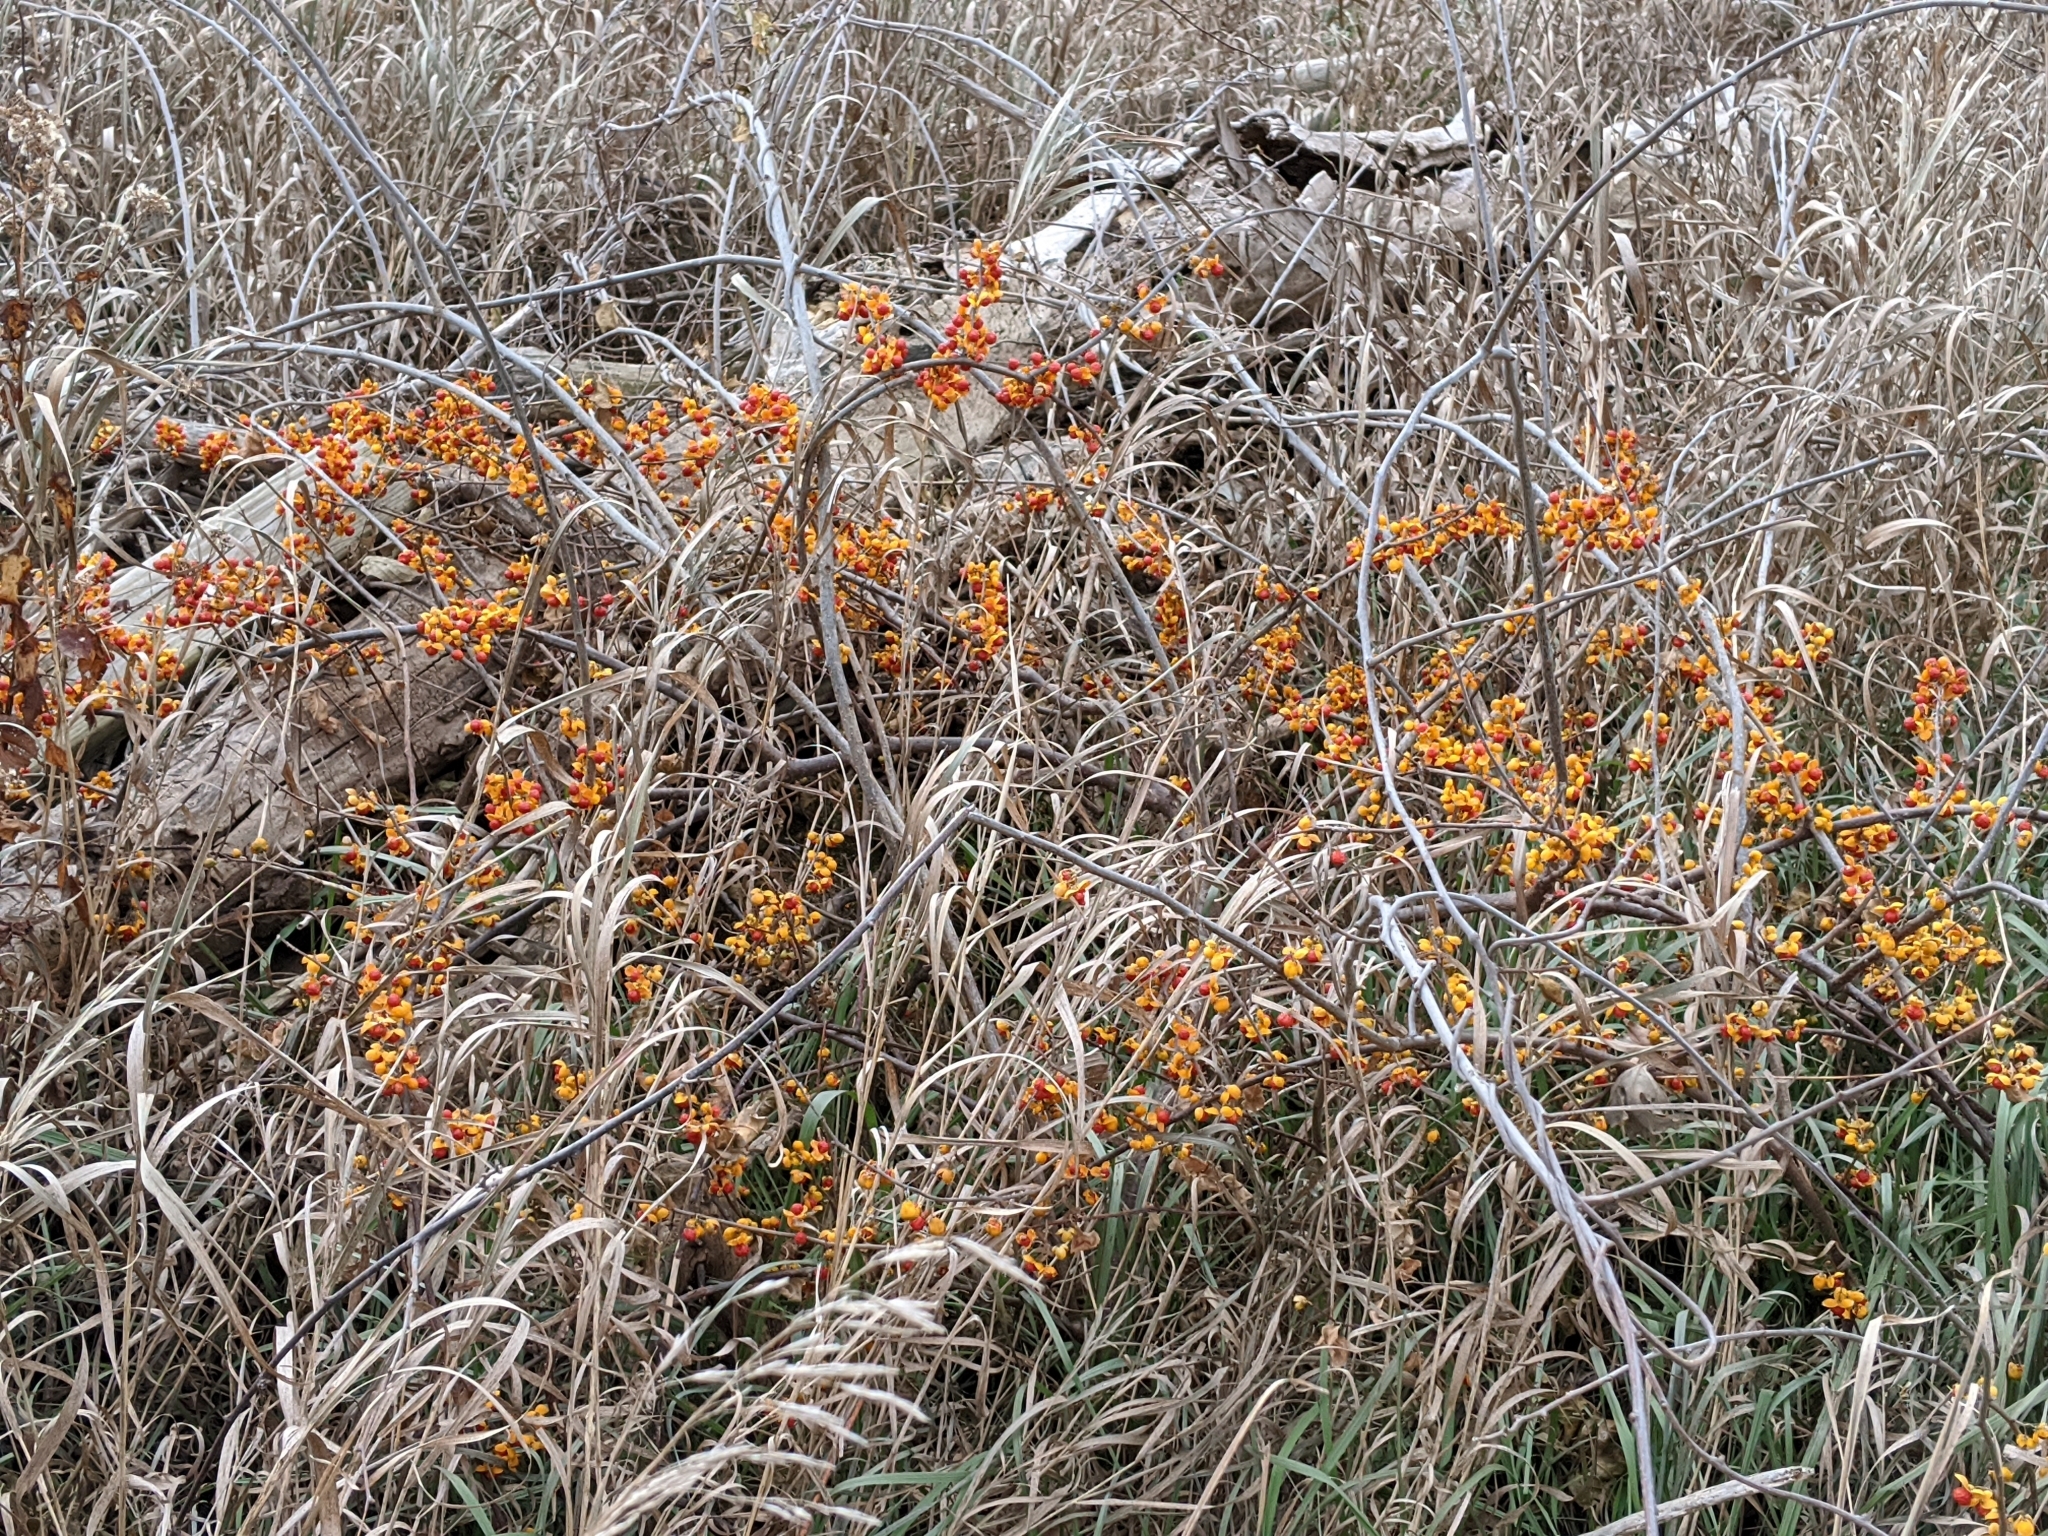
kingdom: Plantae
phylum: Tracheophyta
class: Magnoliopsida
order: Celastrales
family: Celastraceae
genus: Celastrus
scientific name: Celastrus orbiculatus
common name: Oriental bittersweet
